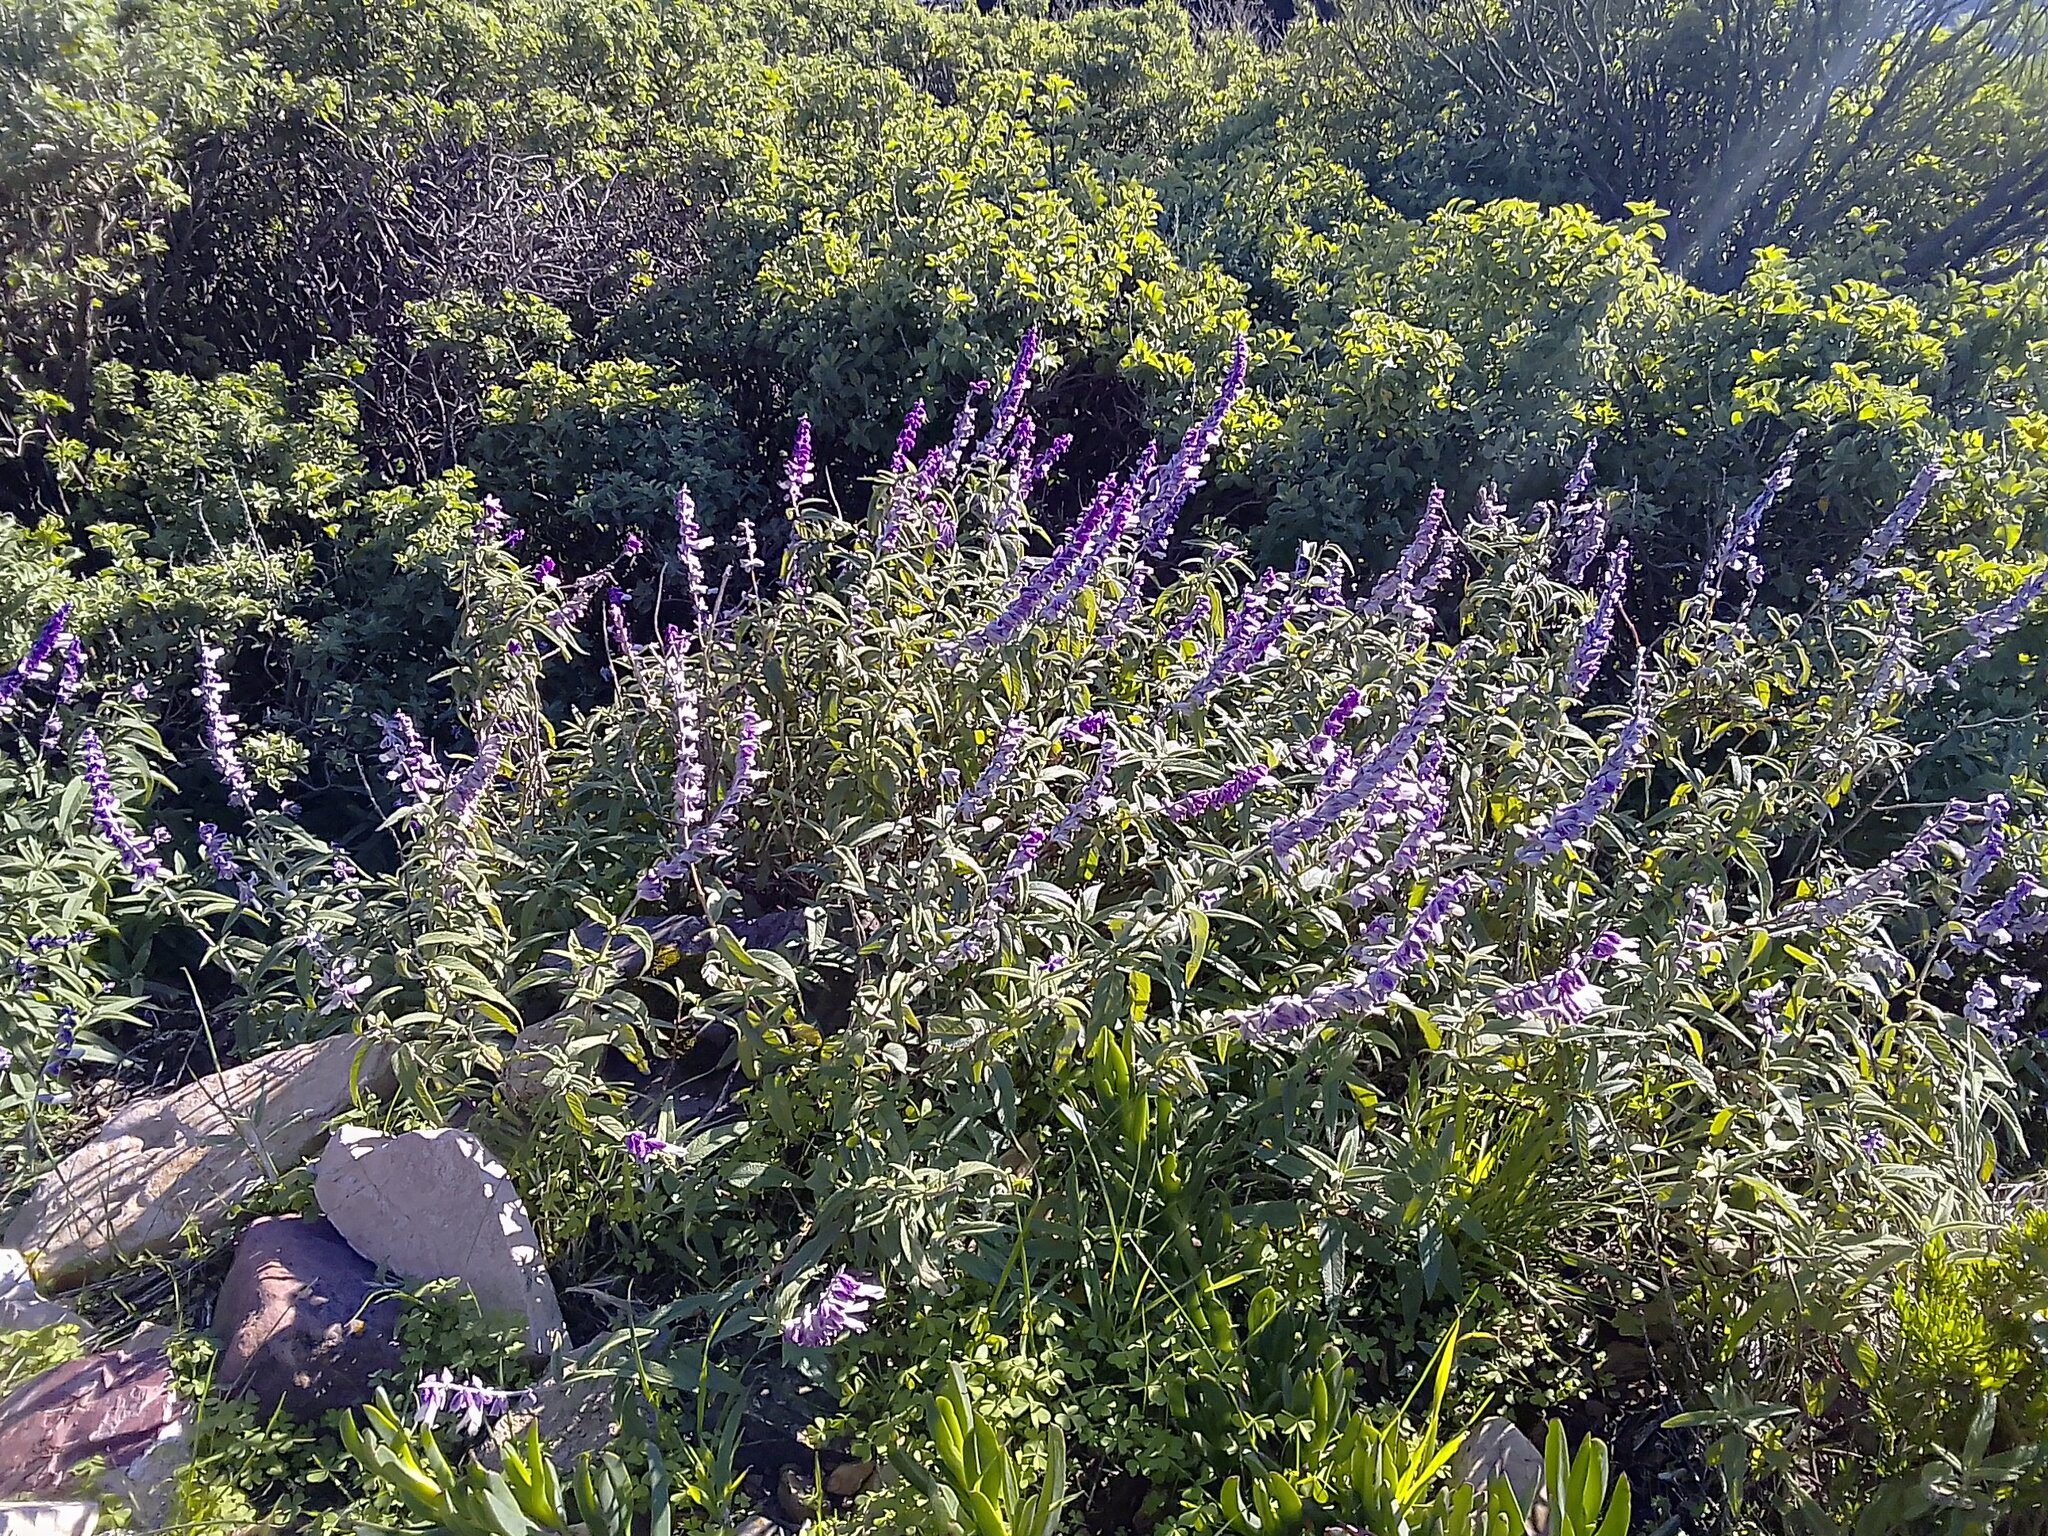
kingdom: Plantae
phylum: Tracheophyta
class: Magnoliopsida
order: Lamiales
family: Lamiaceae
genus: Salvia
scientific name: Salvia leucantha
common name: Mexican bush sage
